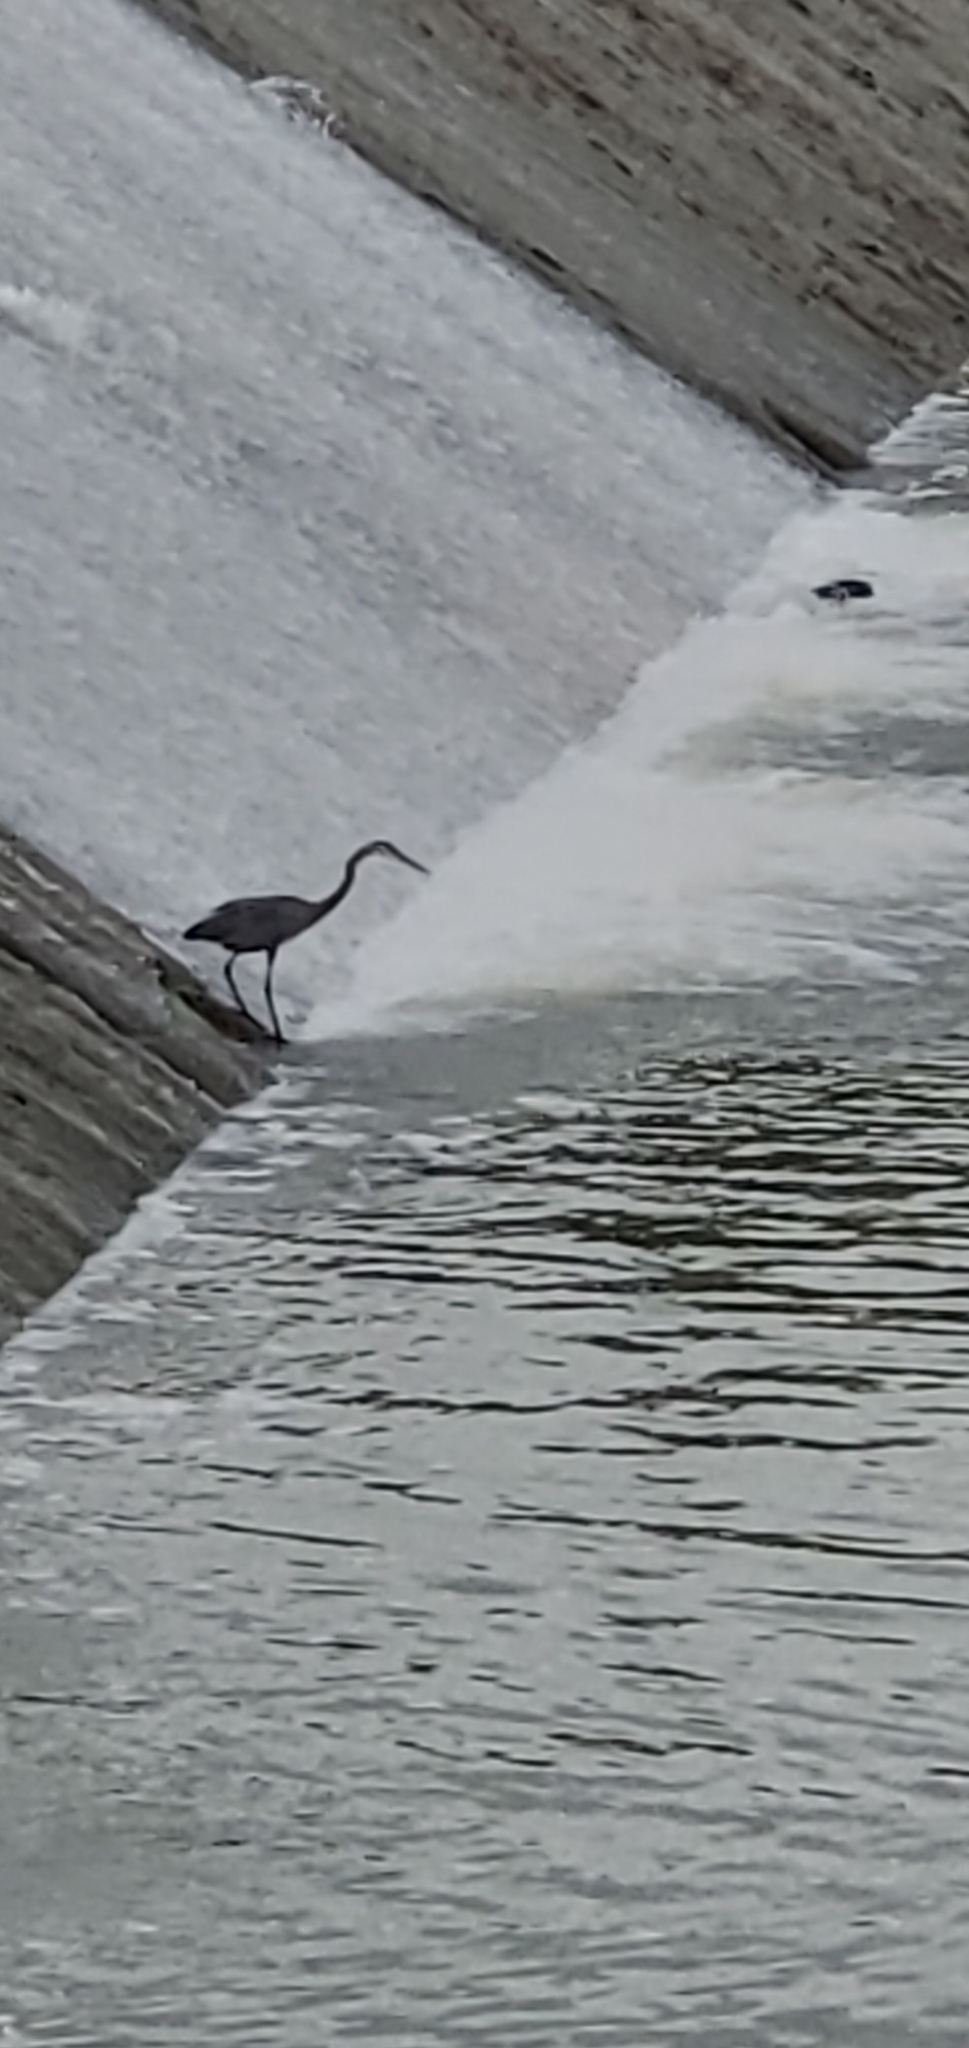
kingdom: Animalia
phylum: Chordata
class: Aves
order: Pelecaniformes
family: Ardeidae
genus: Ardea
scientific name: Ardea herodias
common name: Great blue heron
